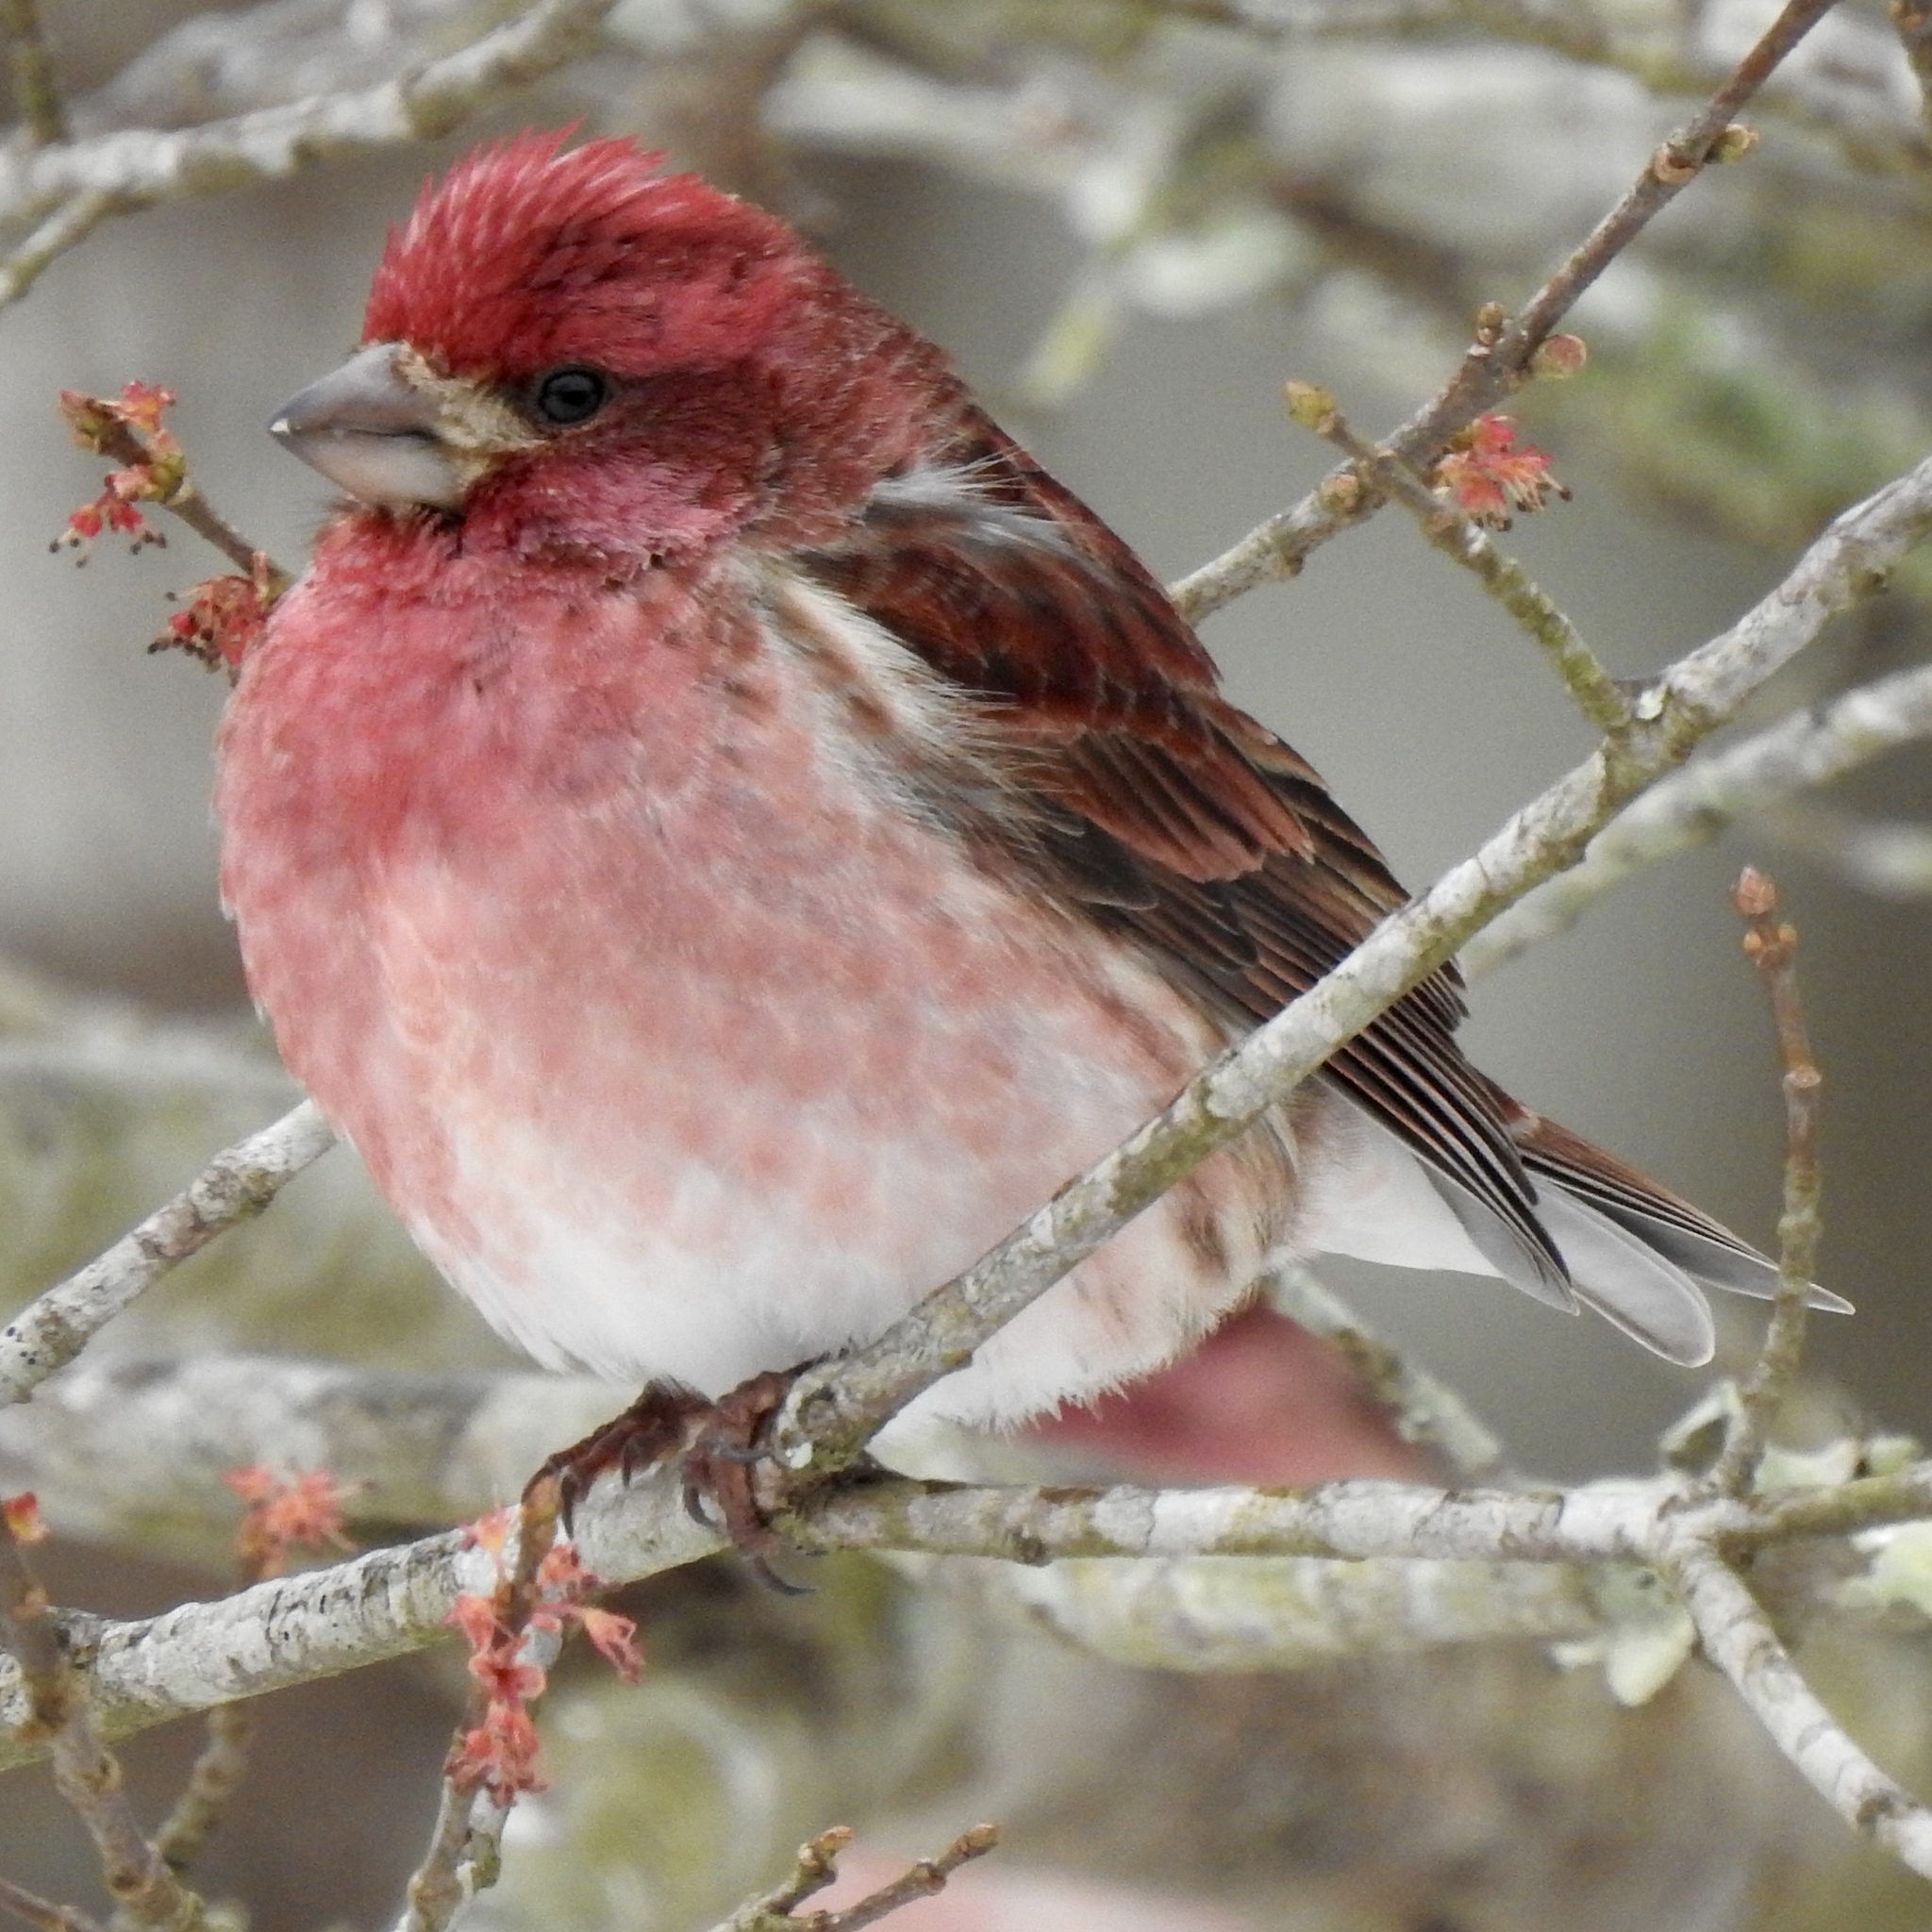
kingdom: Animalia
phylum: Chordata
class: Aves
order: Passeriformes
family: Fringillidae
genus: Haemorhous
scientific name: Haemorhous purpureus
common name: Purple finch
